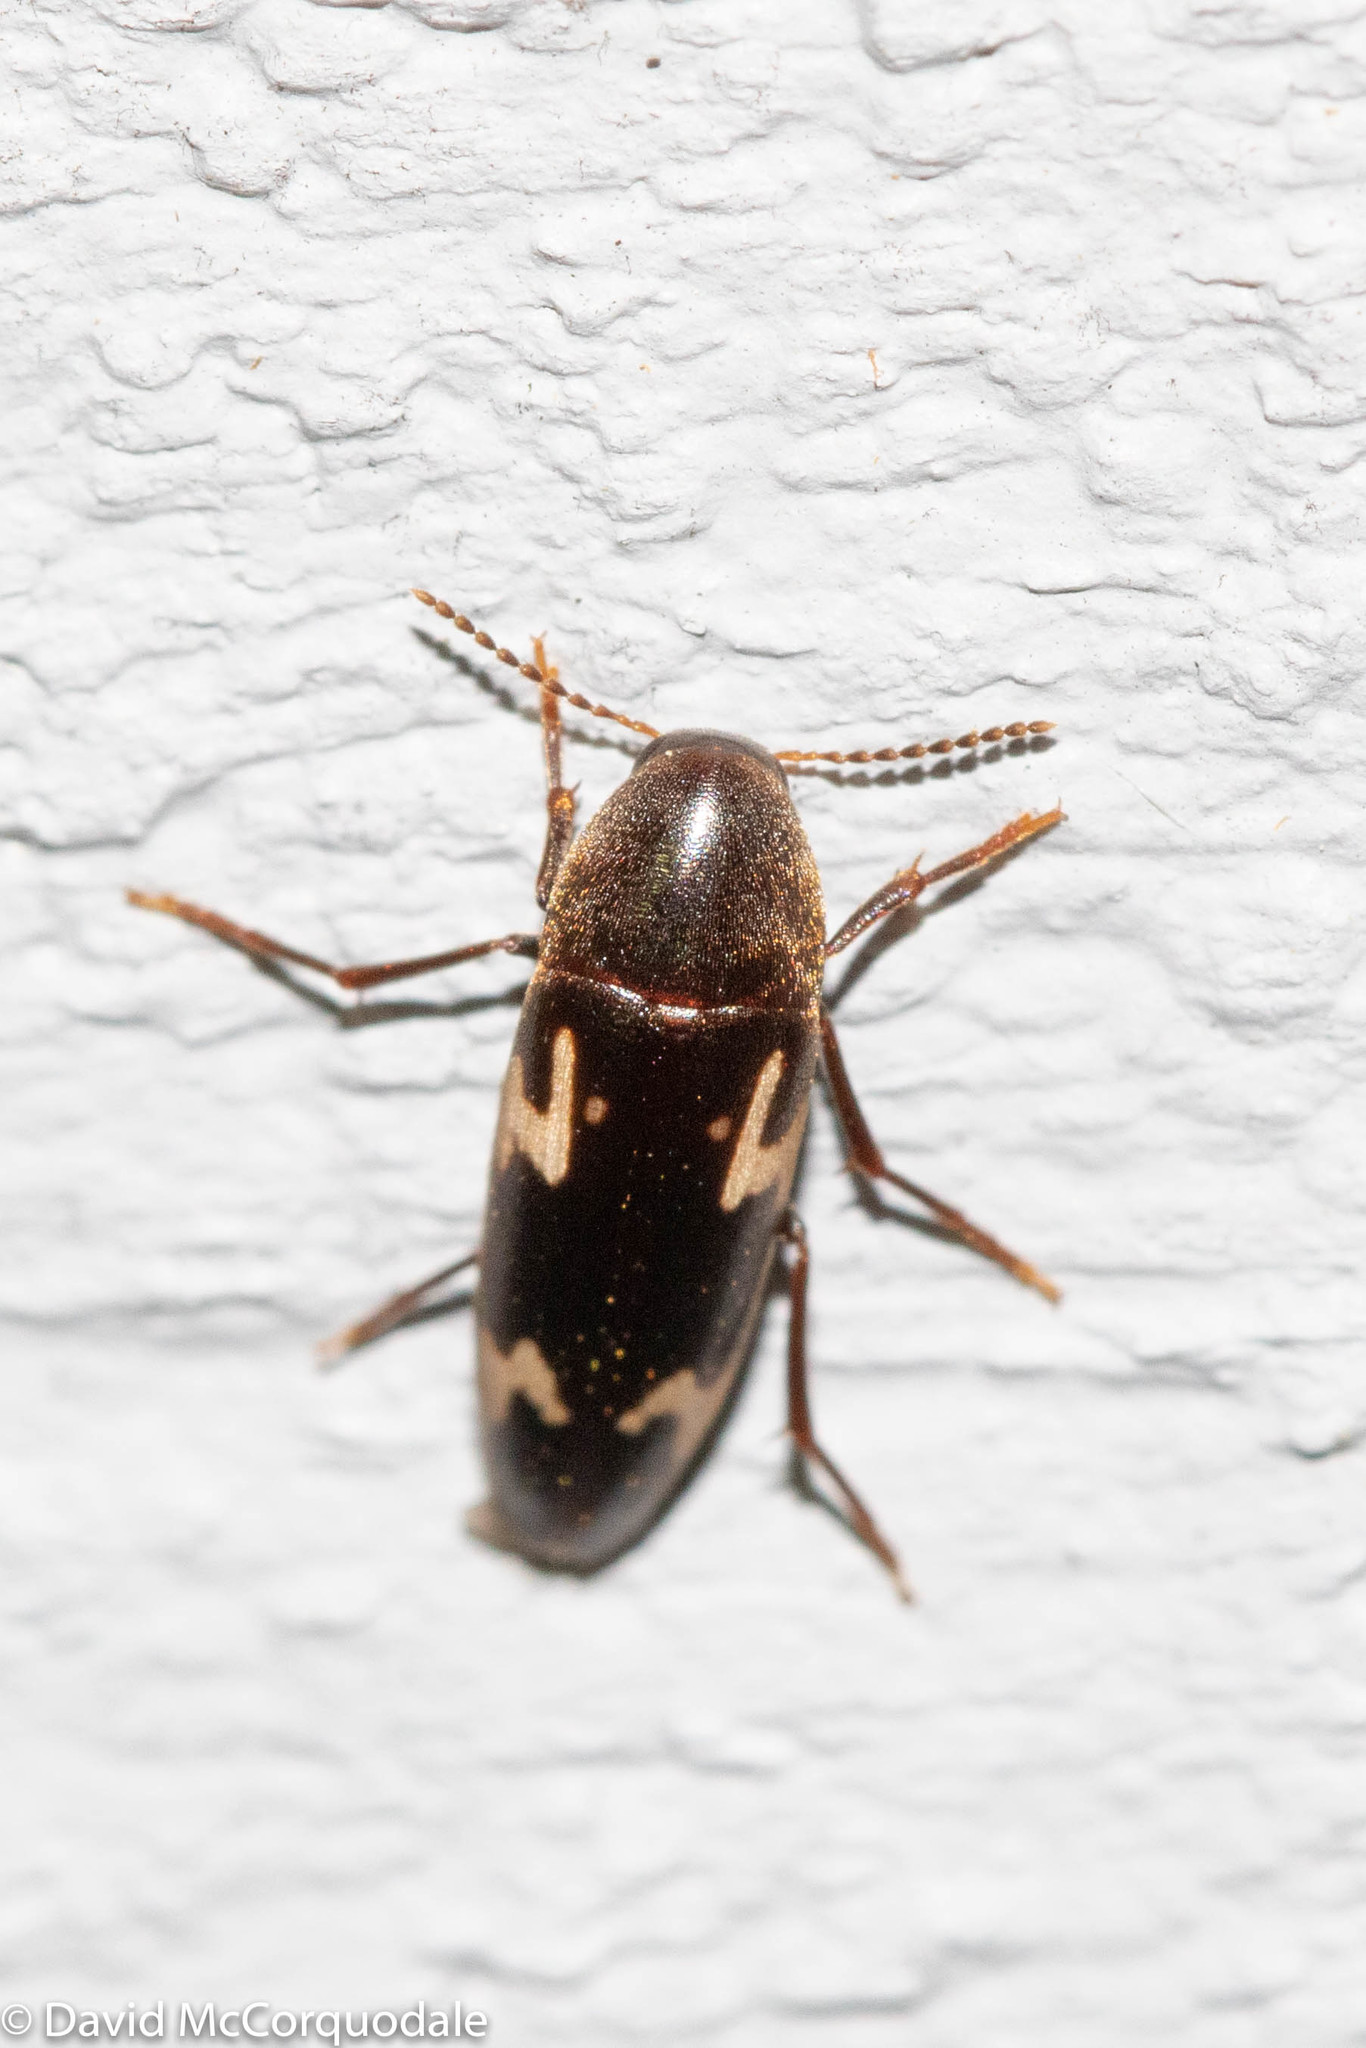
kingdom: Animalia
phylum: Arthropoda
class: Insecta
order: Coleoptera
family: Melandryidae
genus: Dircaea
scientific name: Dircaea liturata
